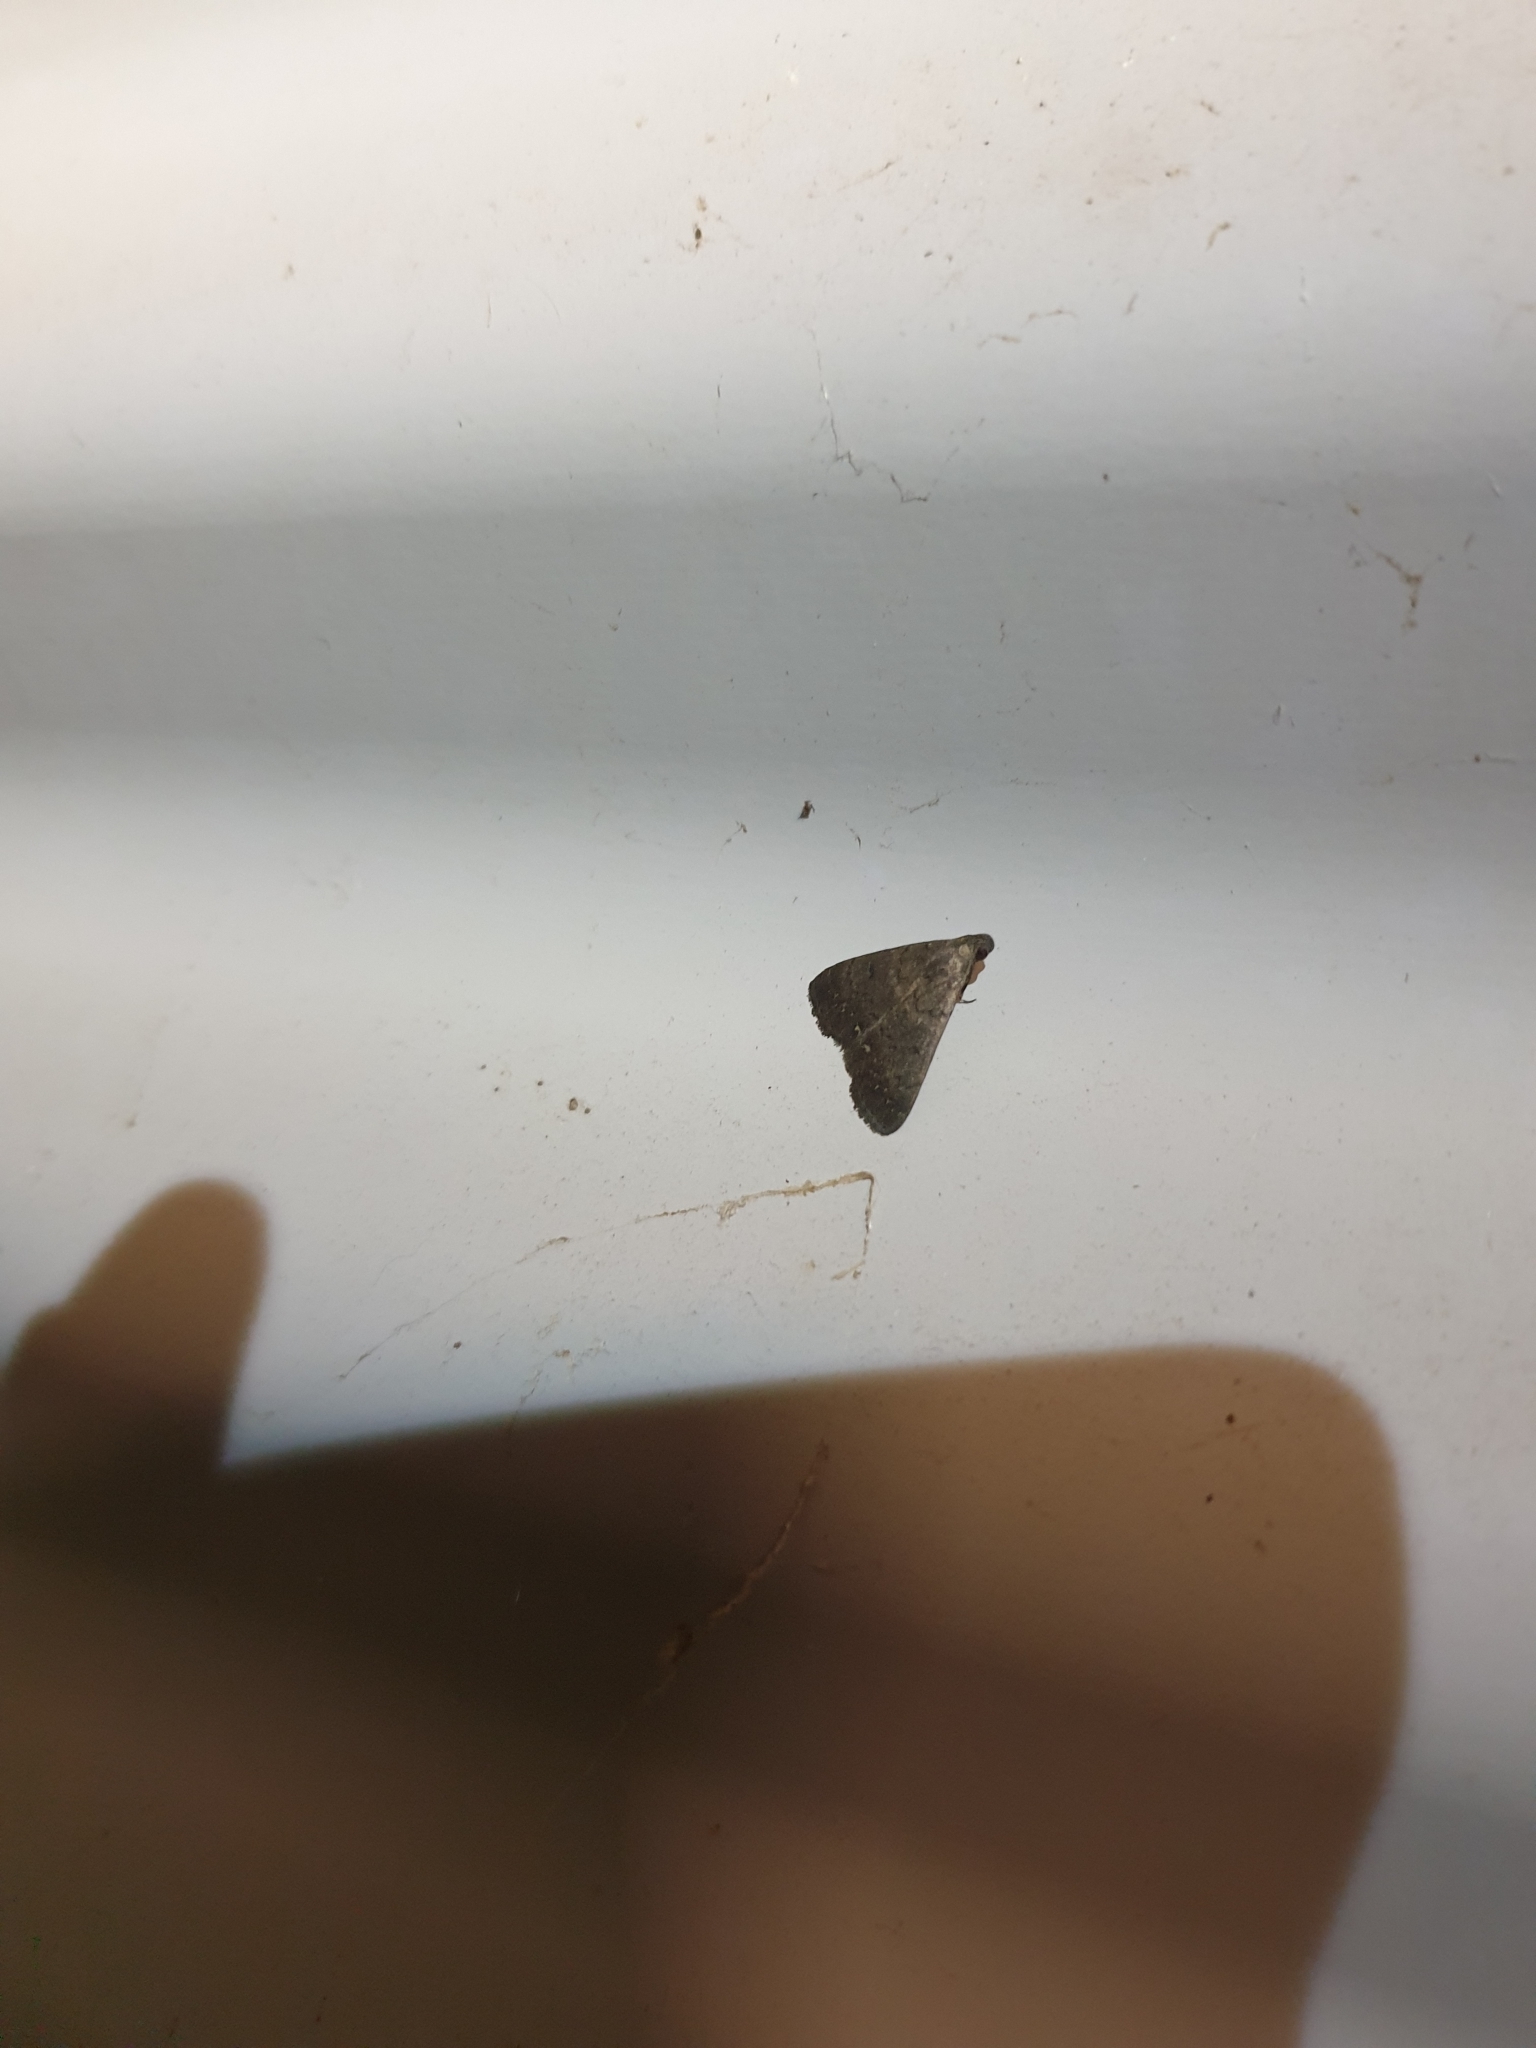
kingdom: Animalia
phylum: Arthropoda
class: Insecta
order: Lepidoptera
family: Erebidae
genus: Simplicia
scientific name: Simplicia cornicalis
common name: Tiki hut litter moth
